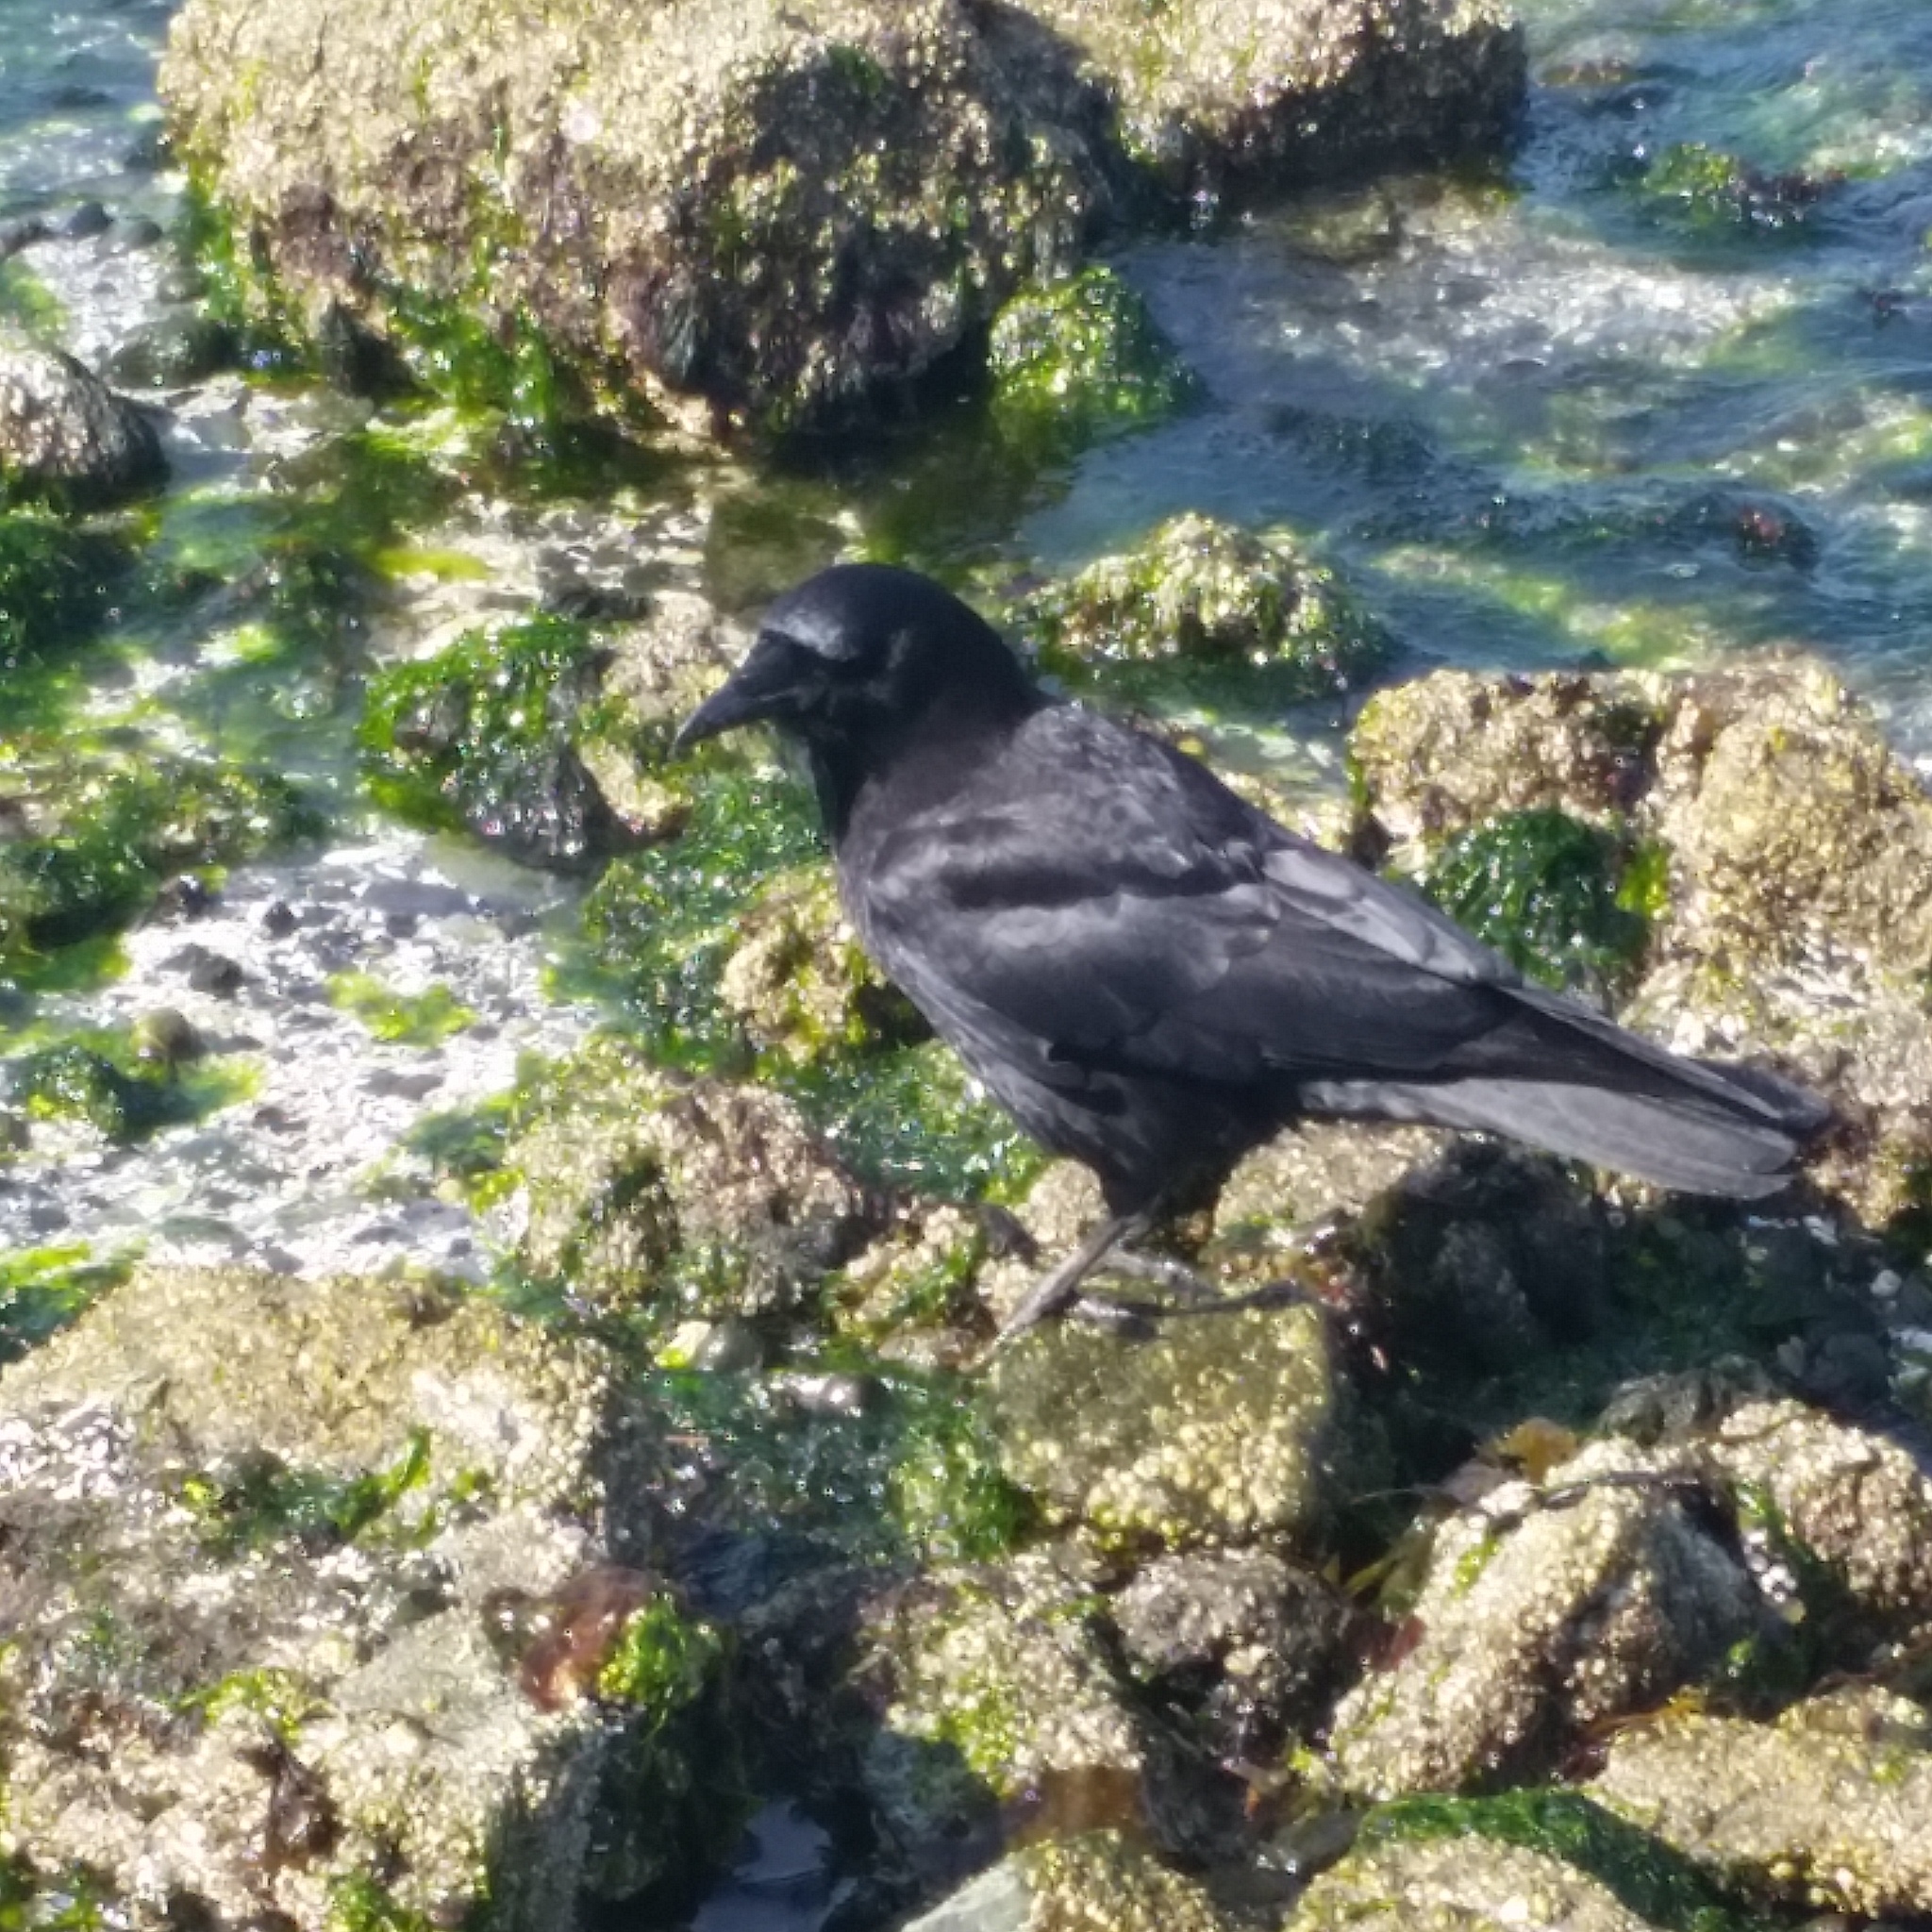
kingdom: Animalia
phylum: Chordata
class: Aves
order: Passeriformes
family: Corvidae
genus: Corvus
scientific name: Corvus brachyrhynchos
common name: American crow
